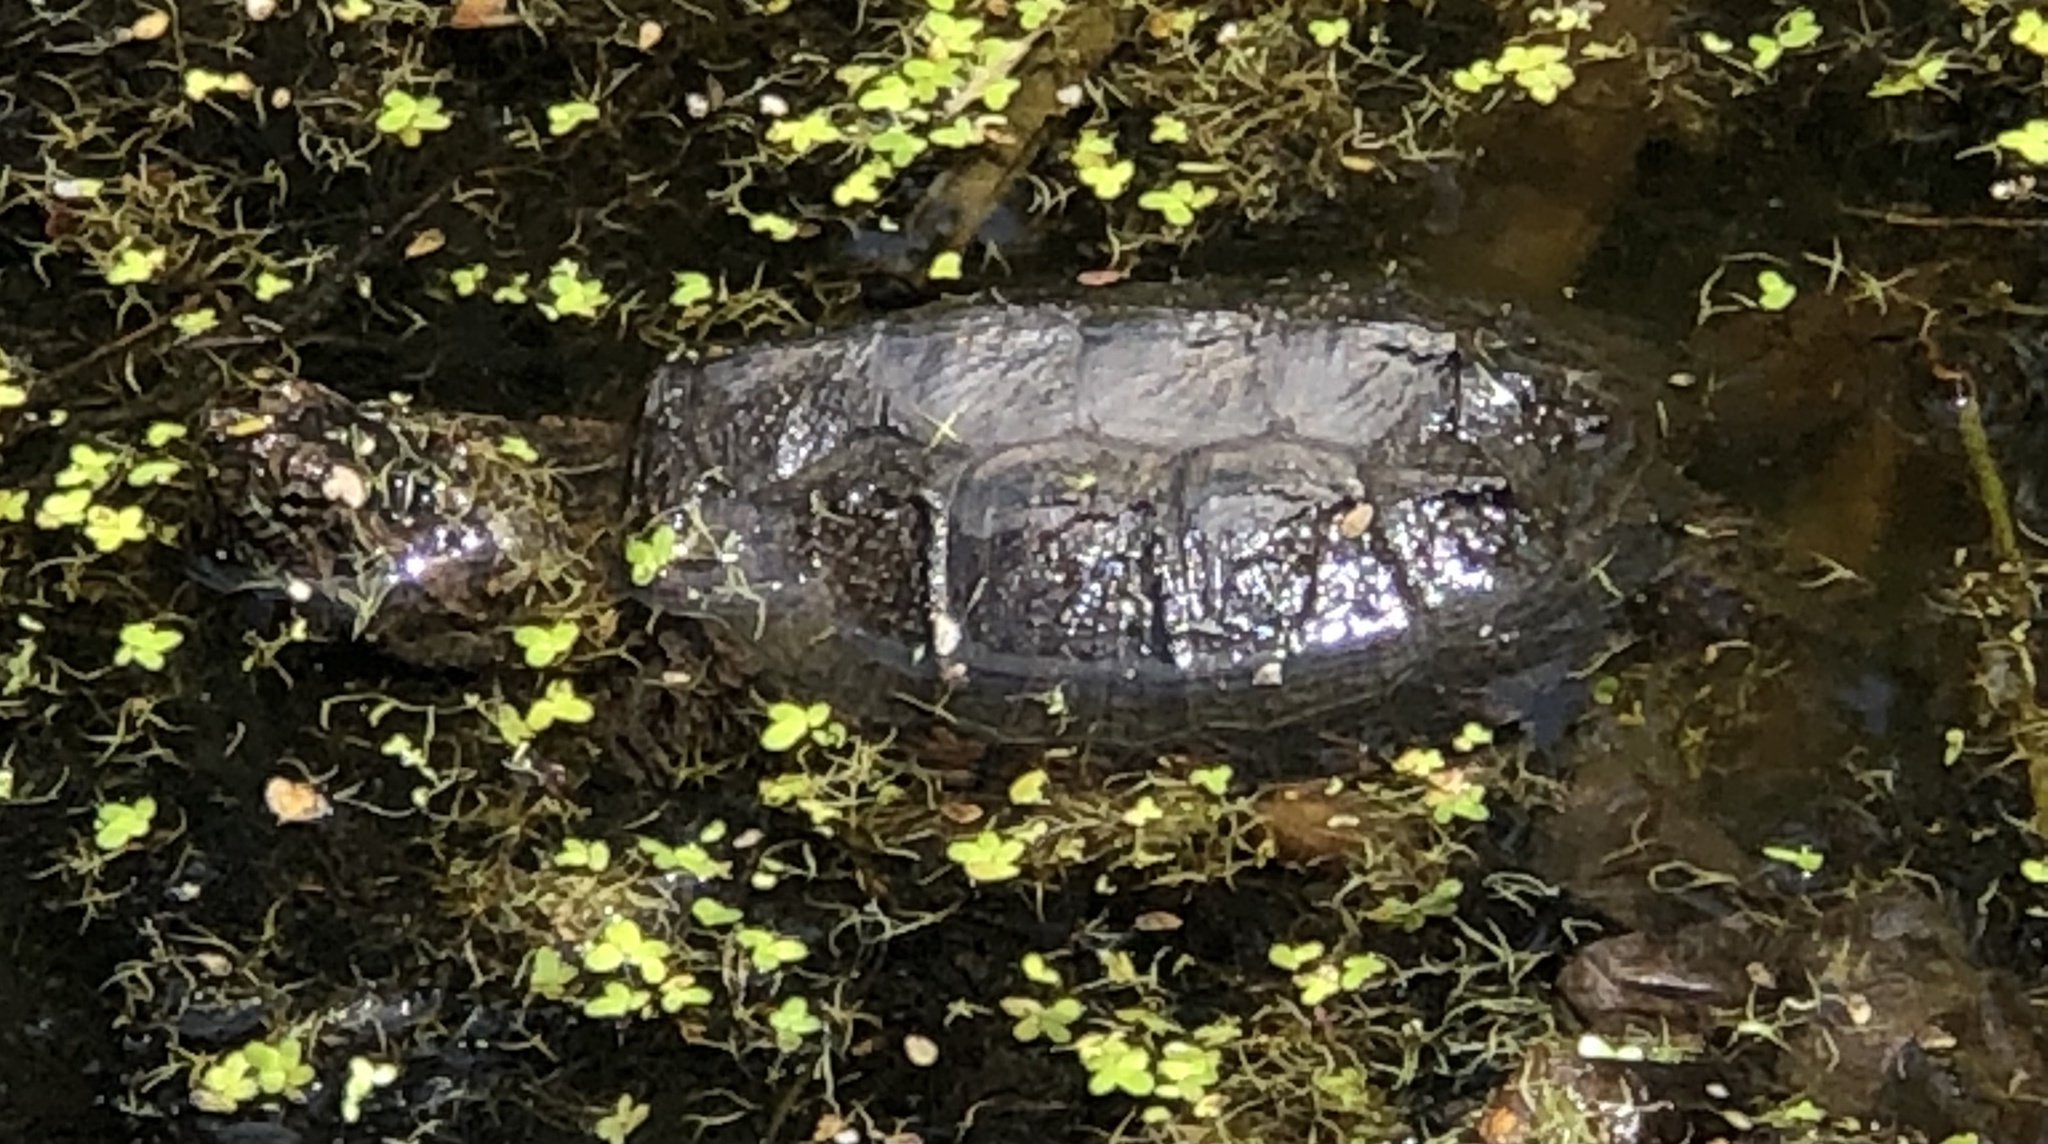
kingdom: Animalia
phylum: Chordata
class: Testudines
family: Chelydridae
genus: Chelydra
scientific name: Chelydra serpentina
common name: Common snapping turtle
